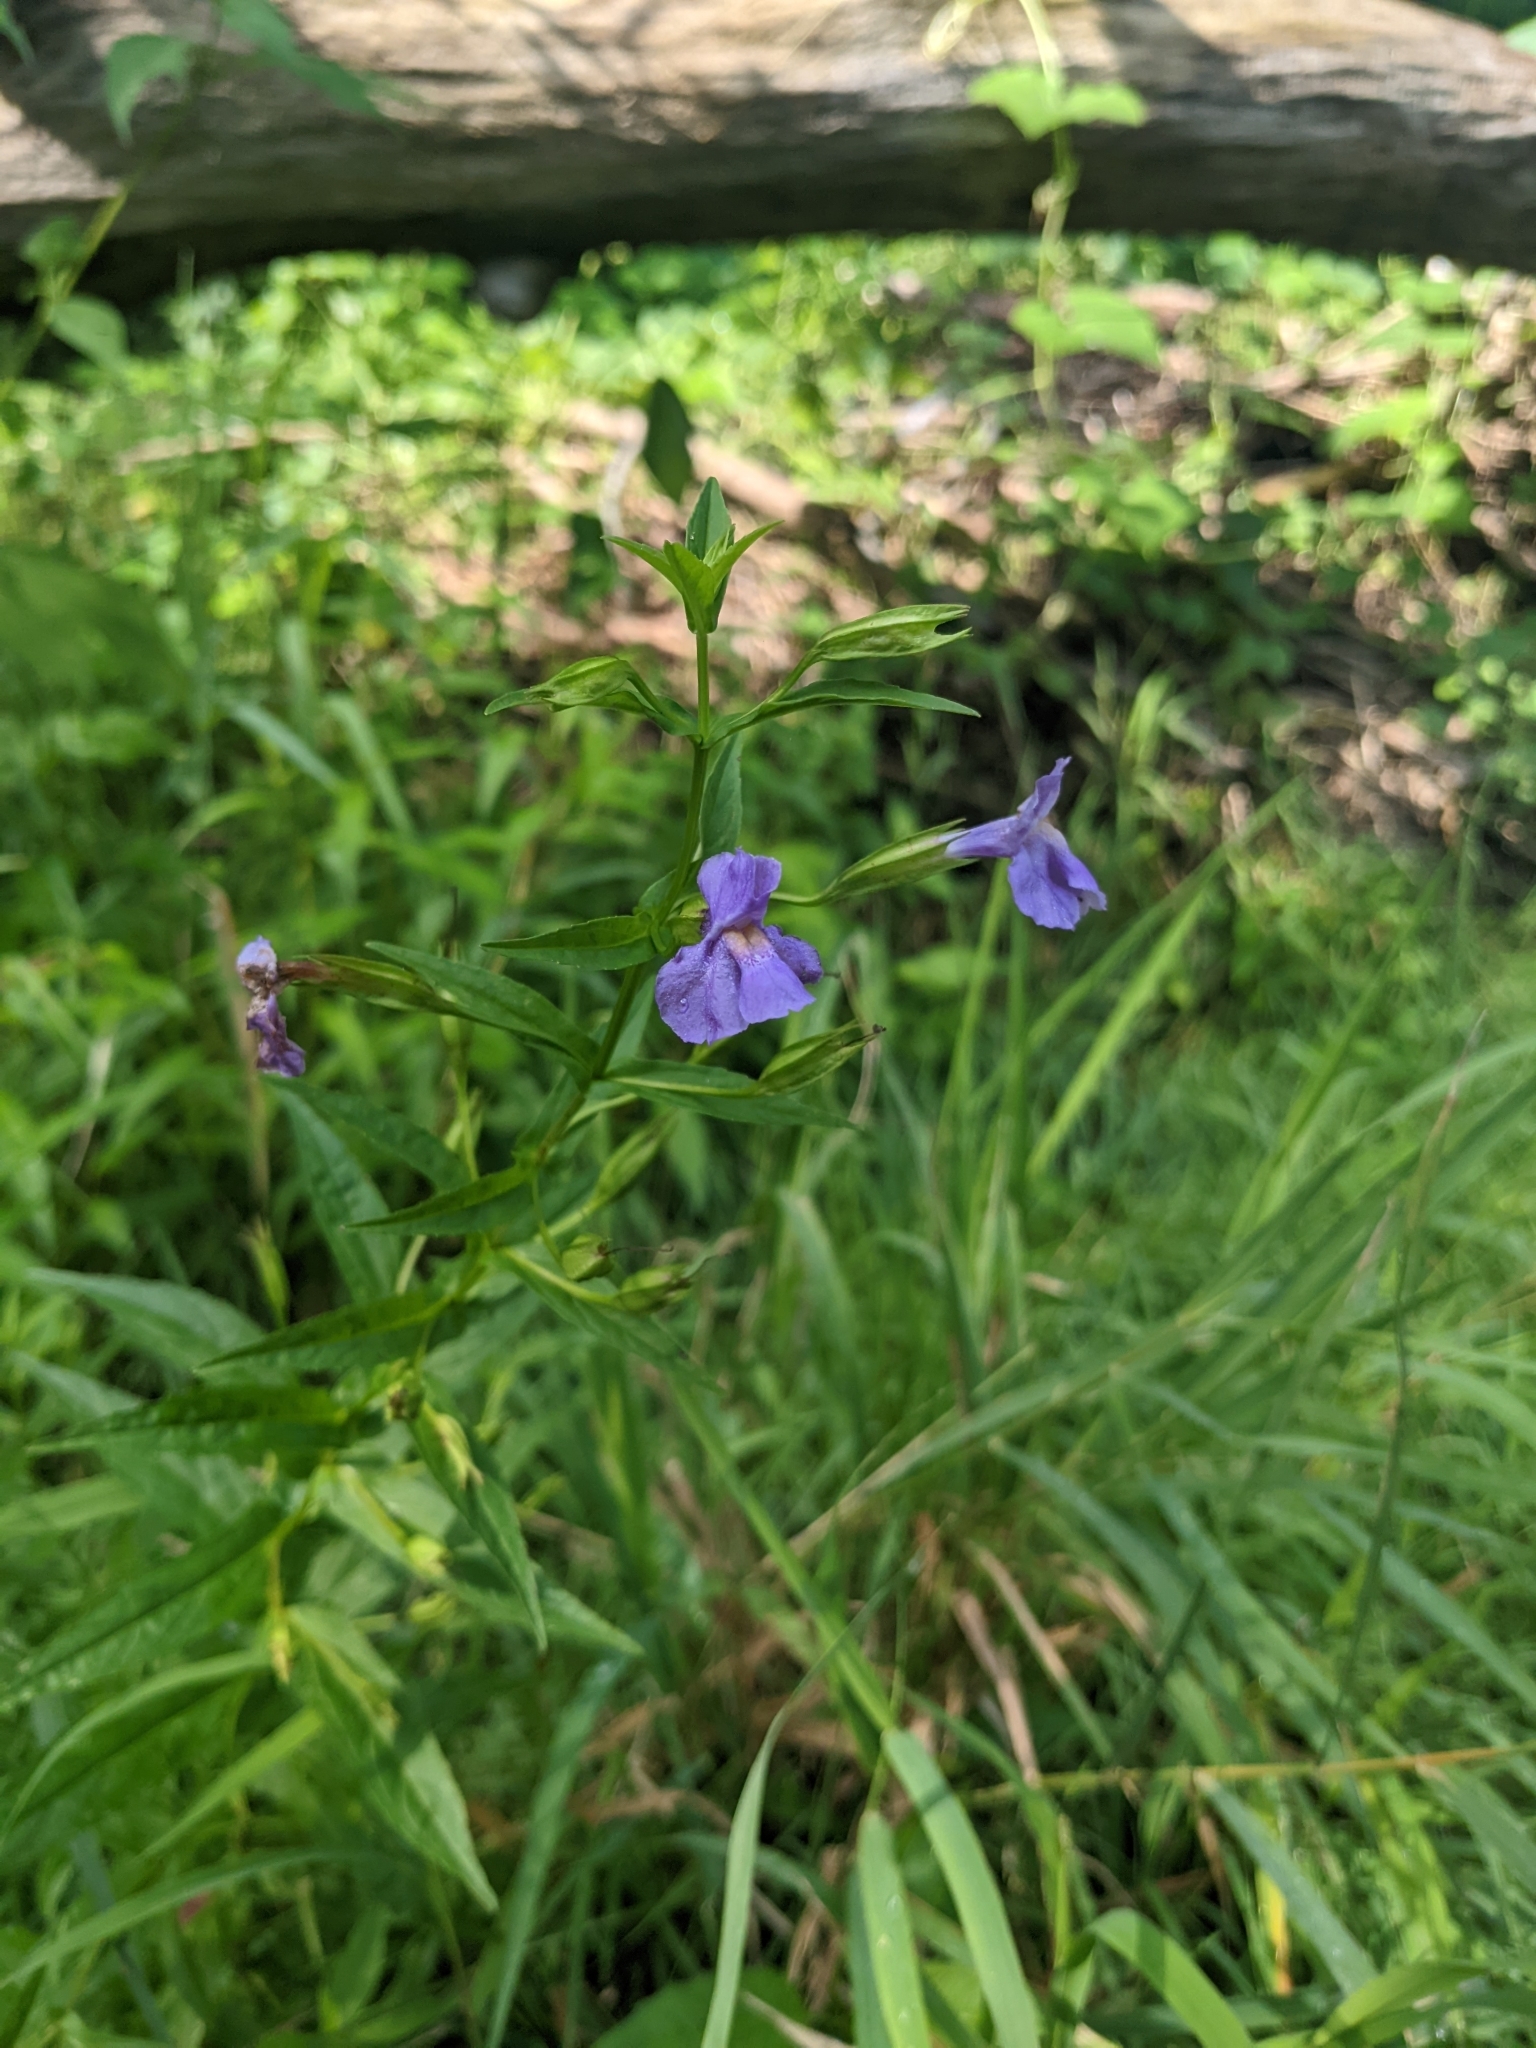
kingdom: Plantae
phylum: Tracheophyta
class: Magnoliopsida
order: Lamiales
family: Phrymaceae
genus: Mimulus
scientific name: Mimulus ringens
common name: Allegheny monkeyflower
